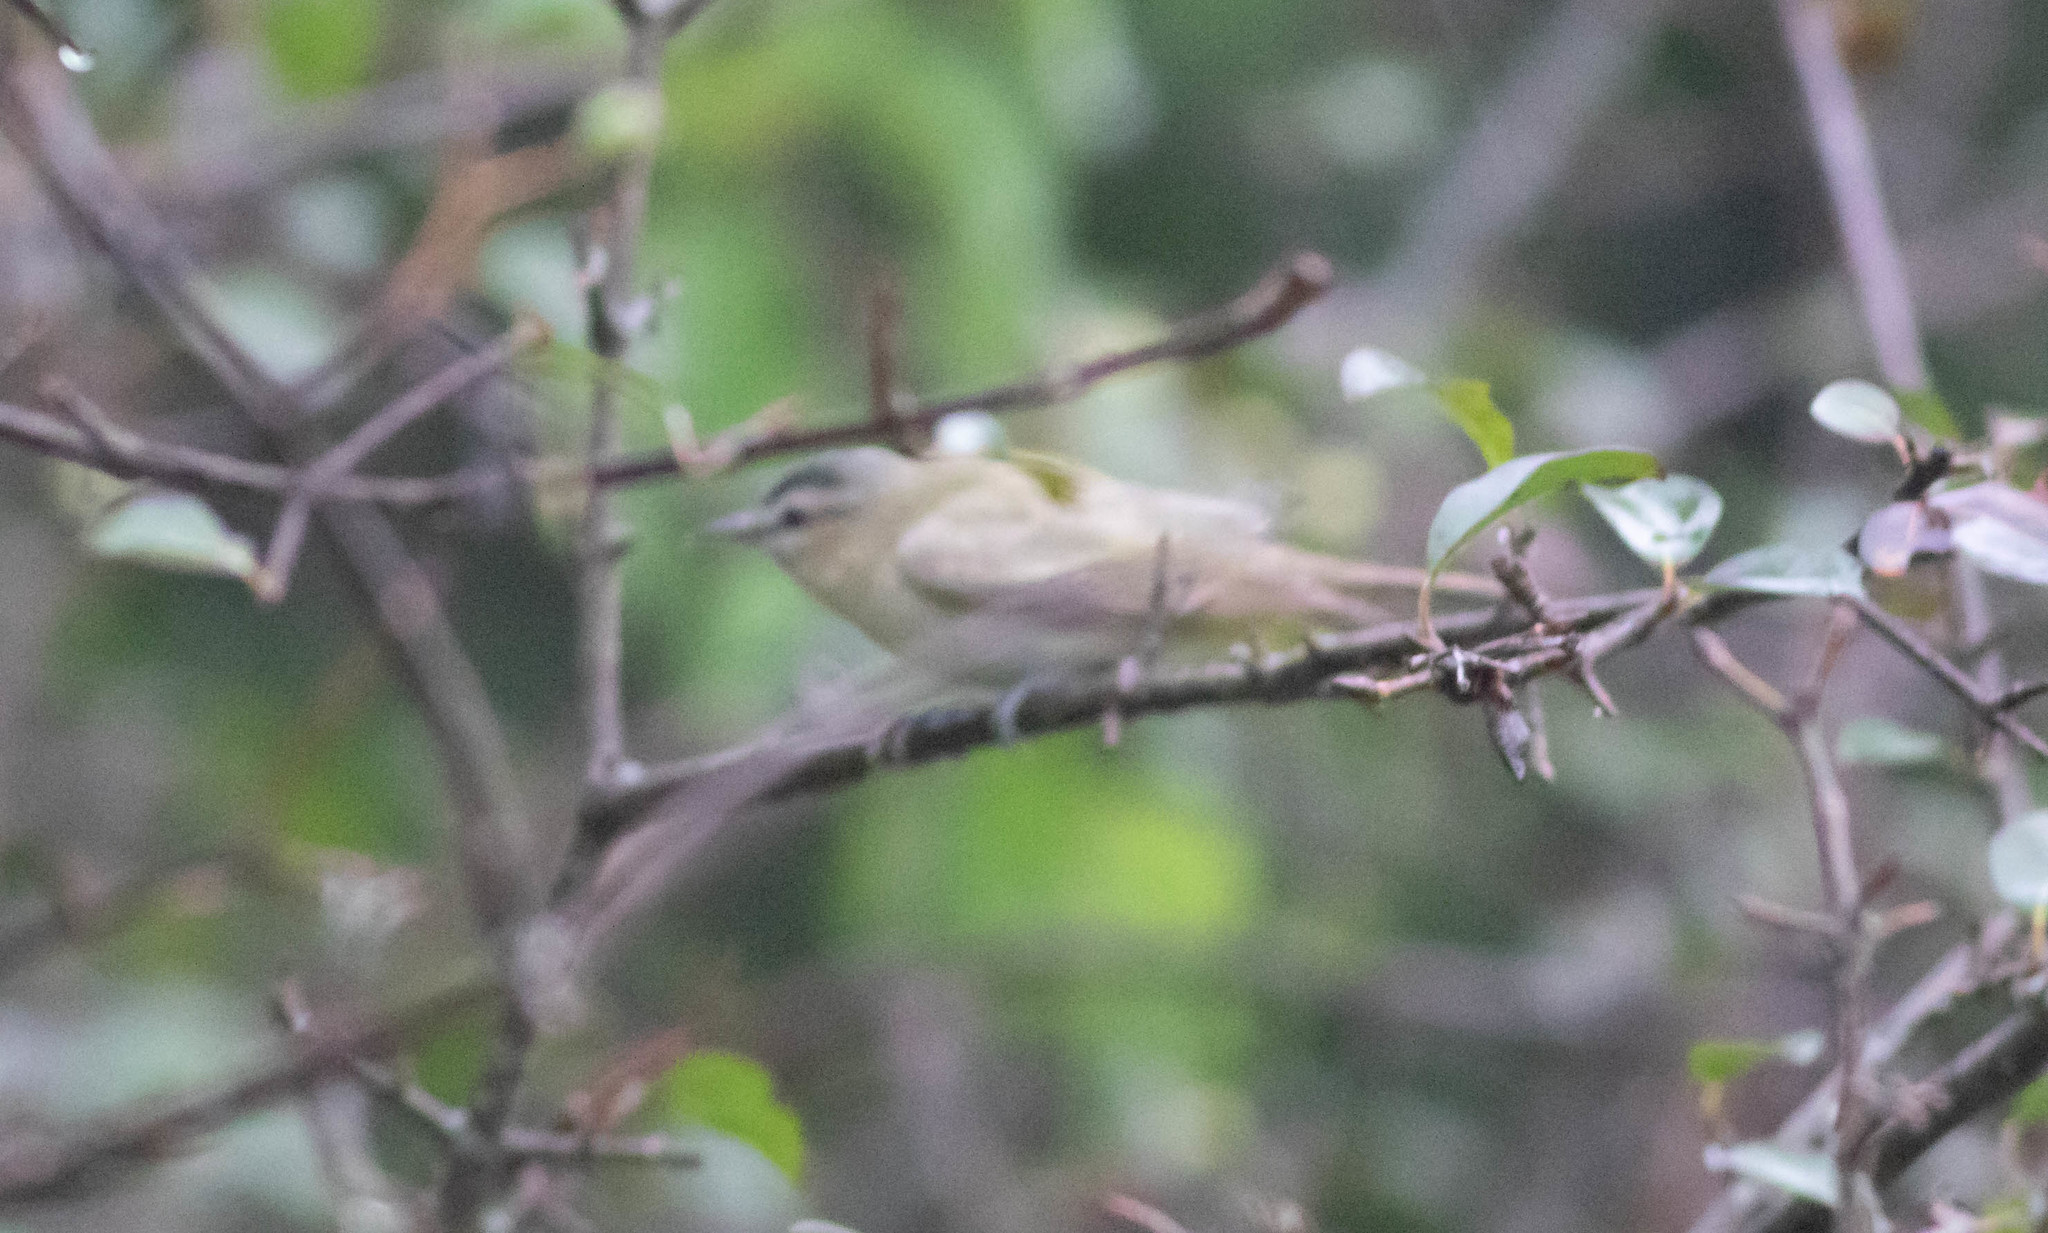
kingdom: Animalia
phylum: Chordata
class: Aves
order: Passeriformes
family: Vireonidae
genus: Vireo
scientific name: Vireo olivaceus
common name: Red-eyed vireo
